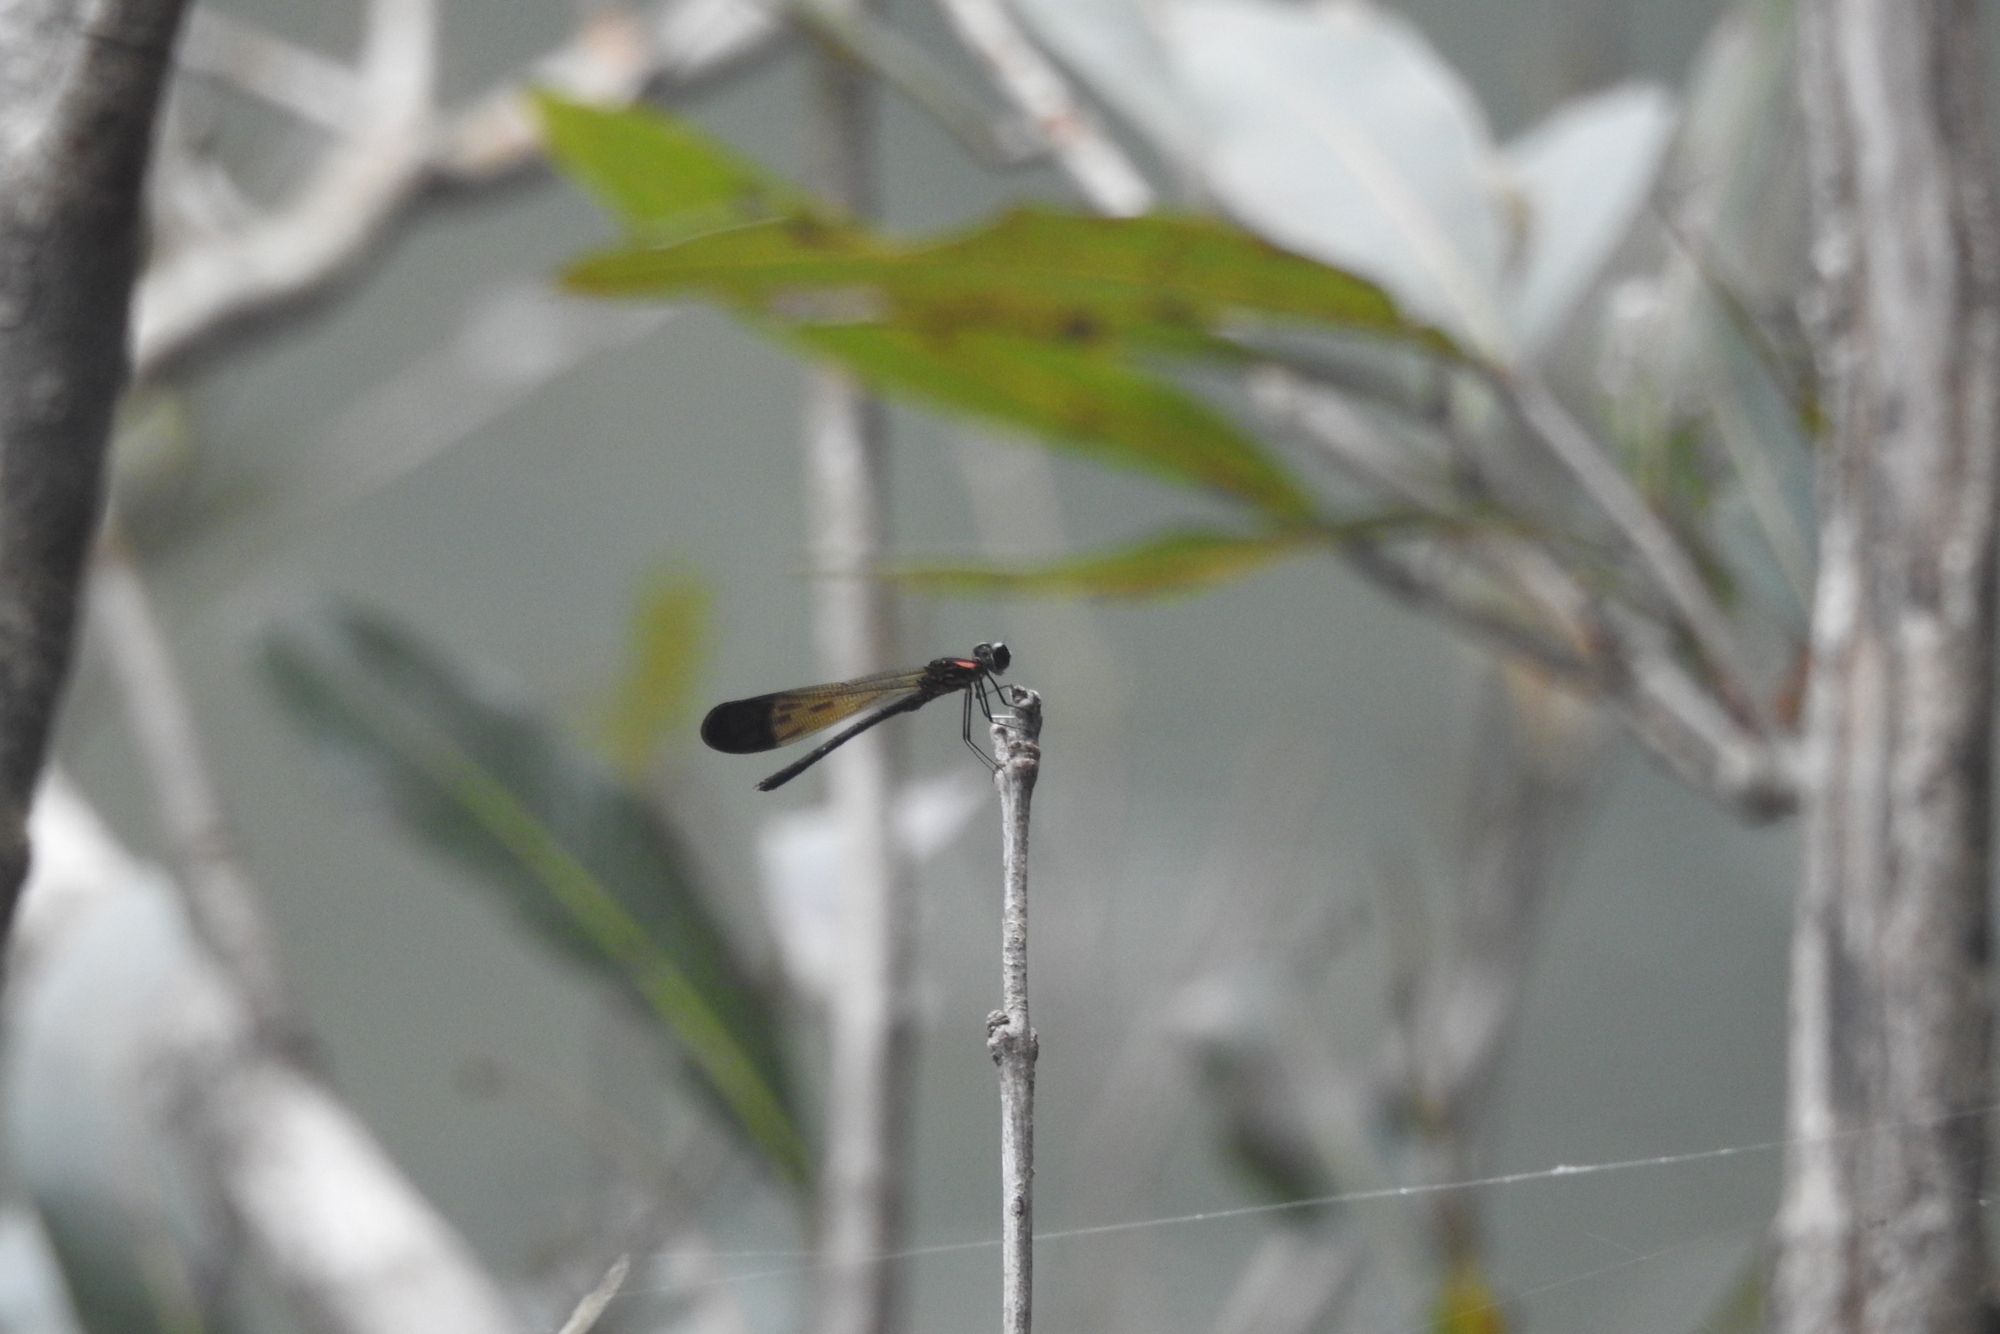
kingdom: Animalia
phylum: Arthropoda
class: Insecta
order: Odonata
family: Chlorocyphidae
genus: Heliocypha
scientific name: Heliocypha bisignata
